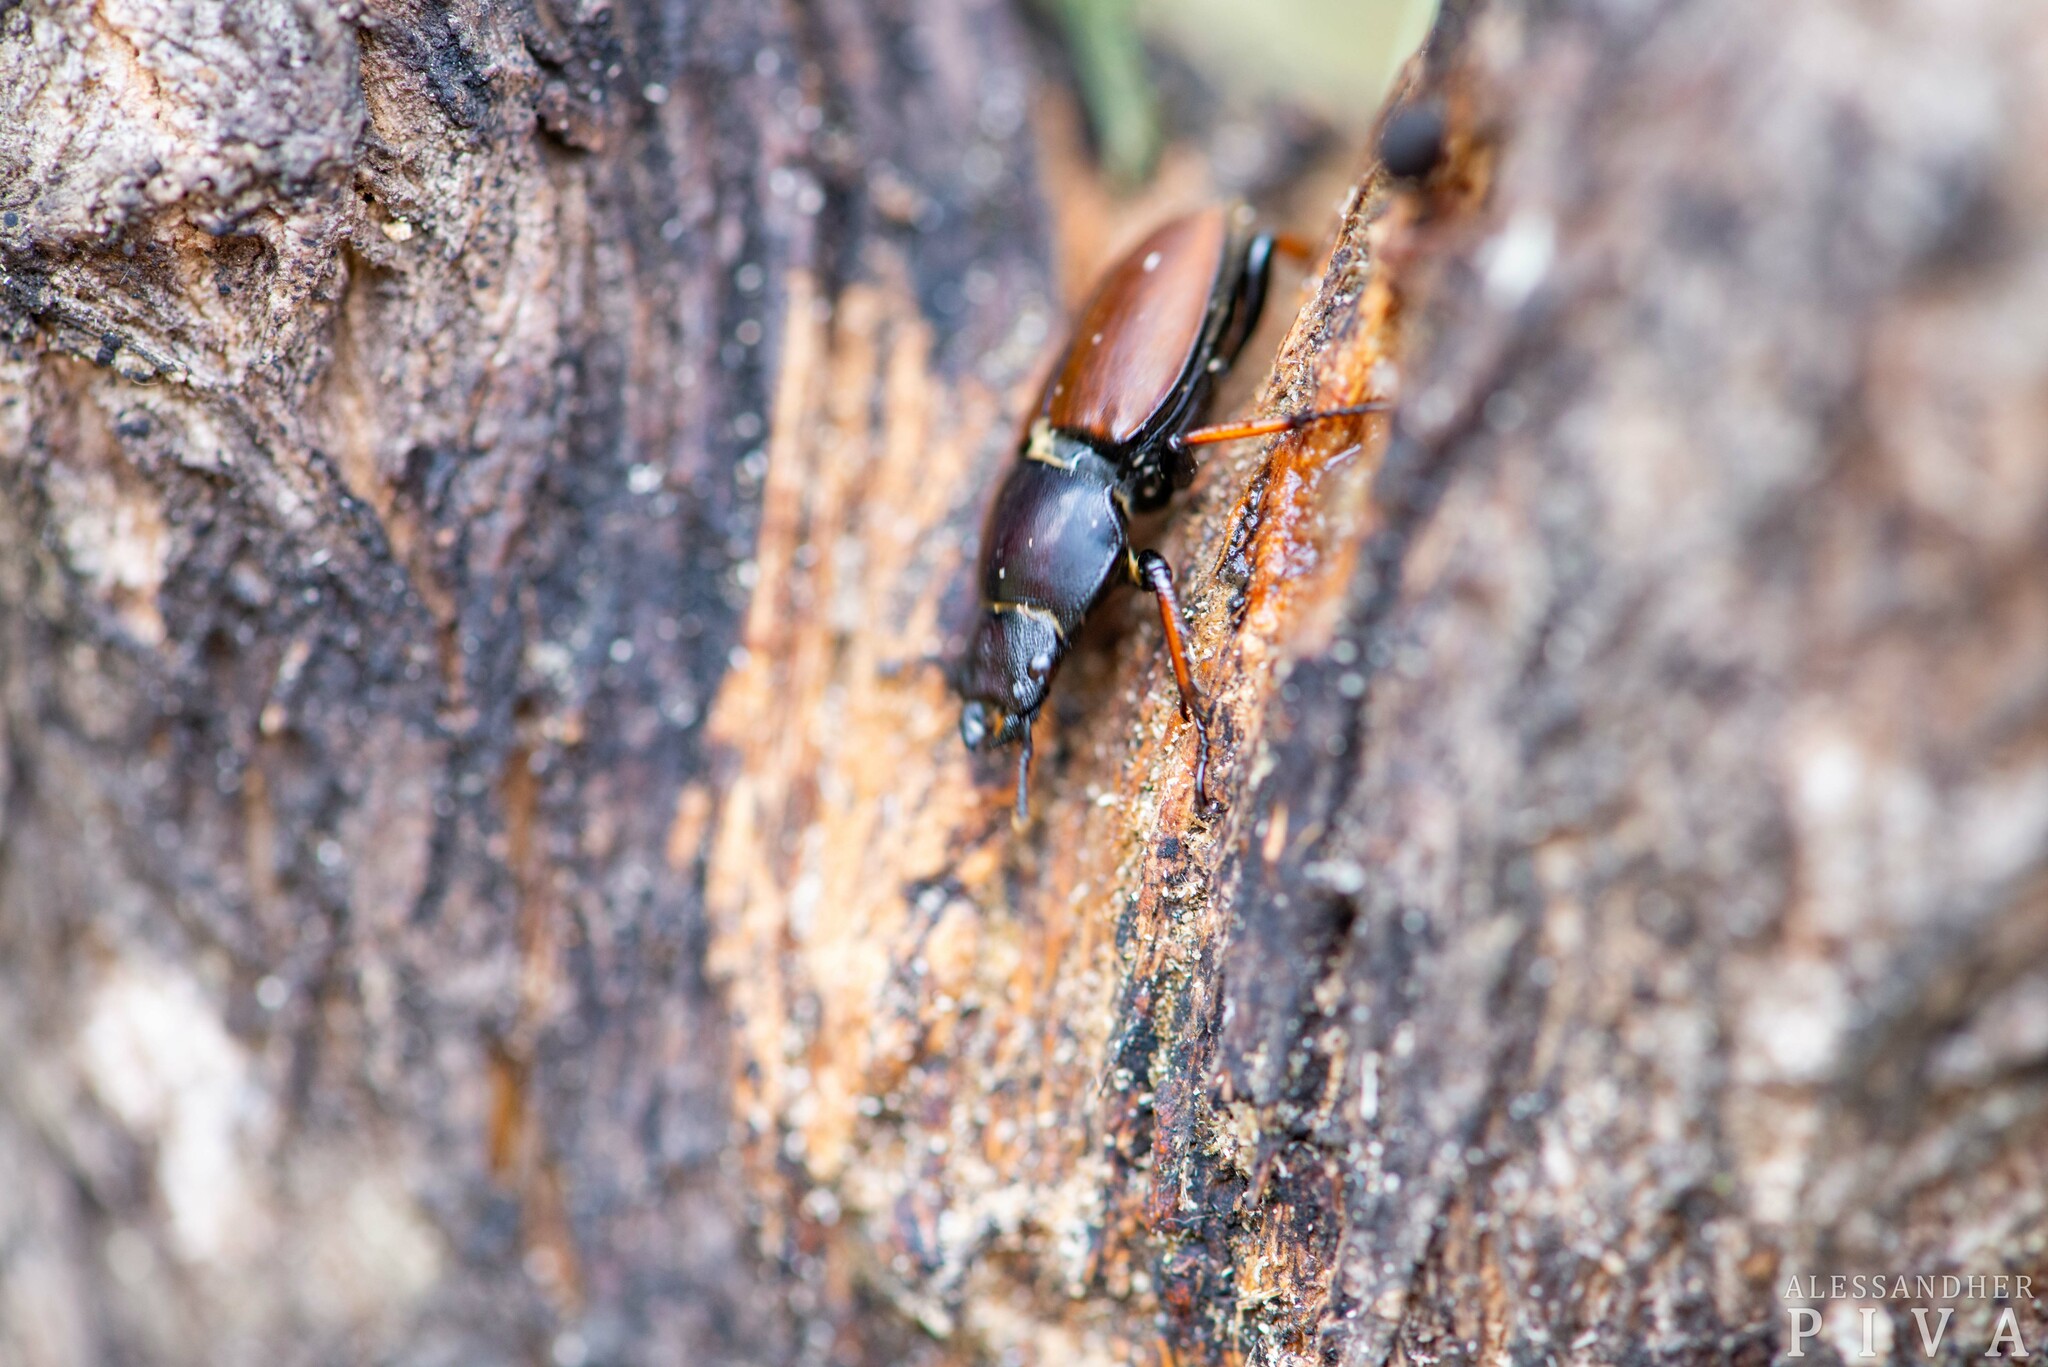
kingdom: Animalia
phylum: Arthropoda
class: Insecta
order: Coleoptera
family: Lucanidae
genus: Leptinopterus
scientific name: Leptinopterus tibialis
